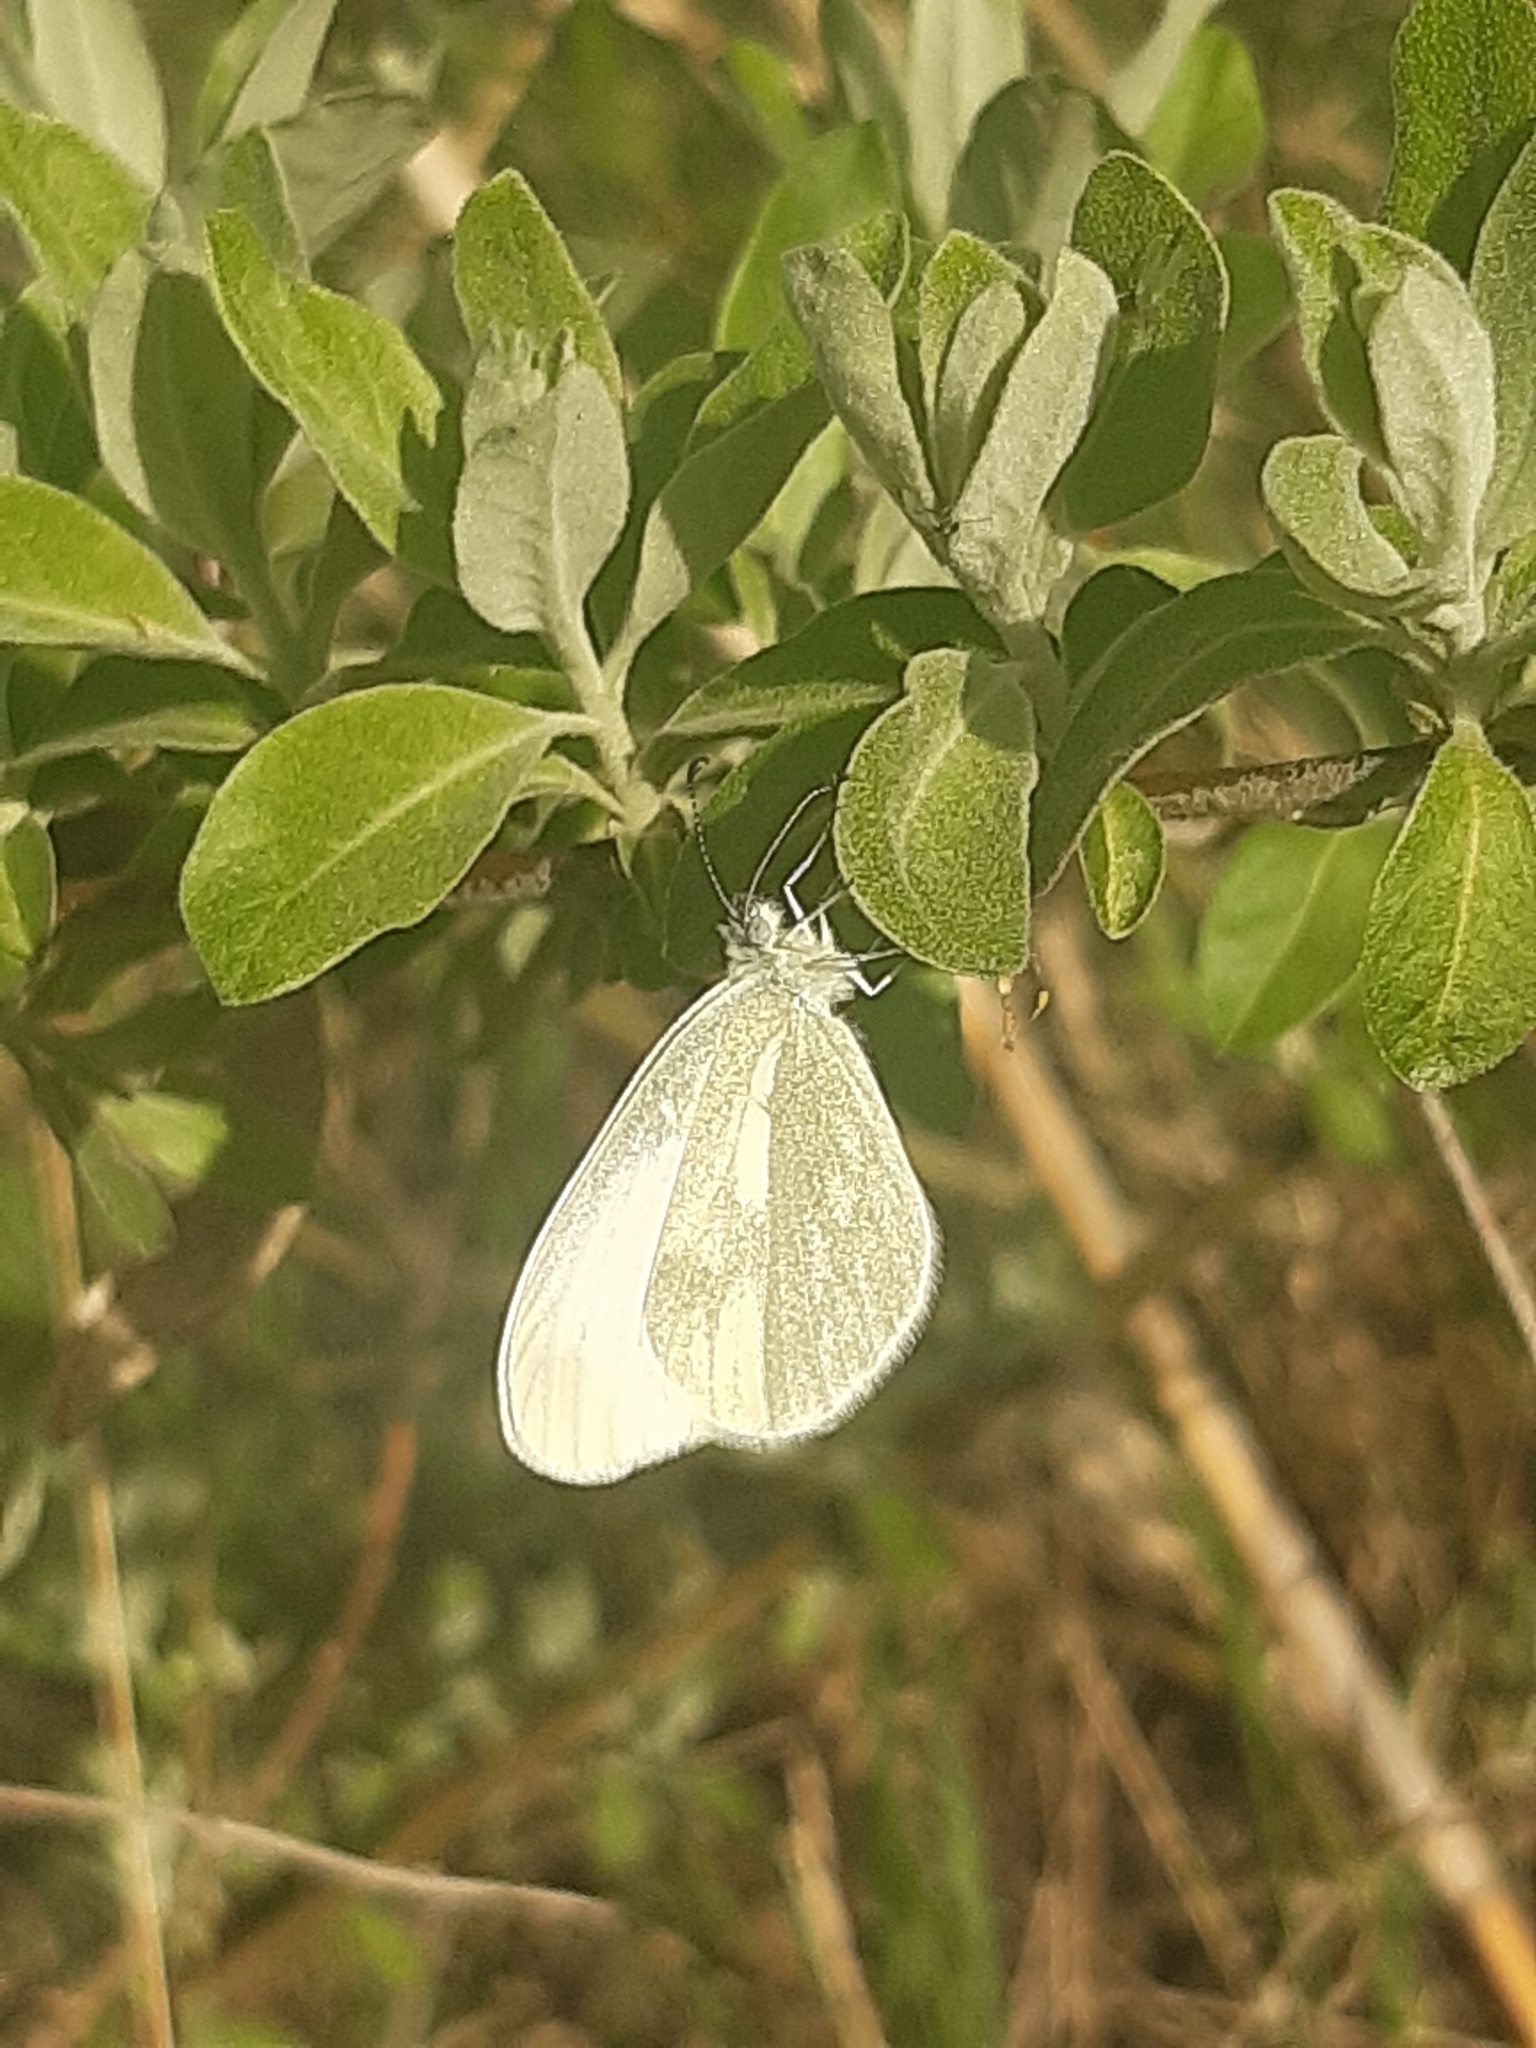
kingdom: Animalia
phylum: Arthropoda
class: Insecta
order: Lepidoptera
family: Pieridae
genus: Leptidea
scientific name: Leptidea
